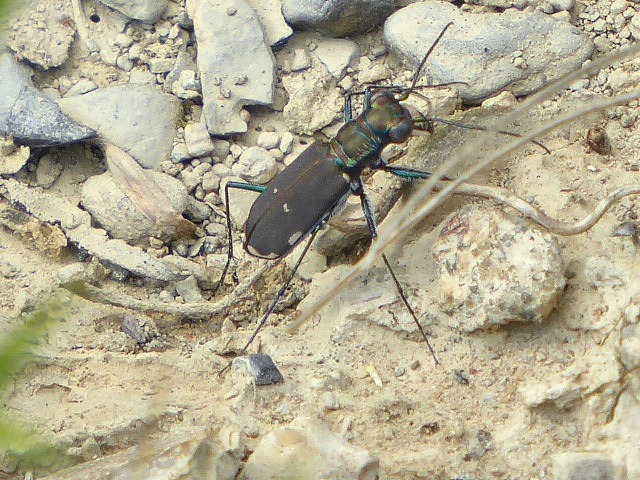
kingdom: Animalia
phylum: Arthropoda
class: Insecta
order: Coleoptera
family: Carabidae
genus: Cicindela
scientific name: Cicindela rufiventris
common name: Eastern red-bellied tiger beetle
